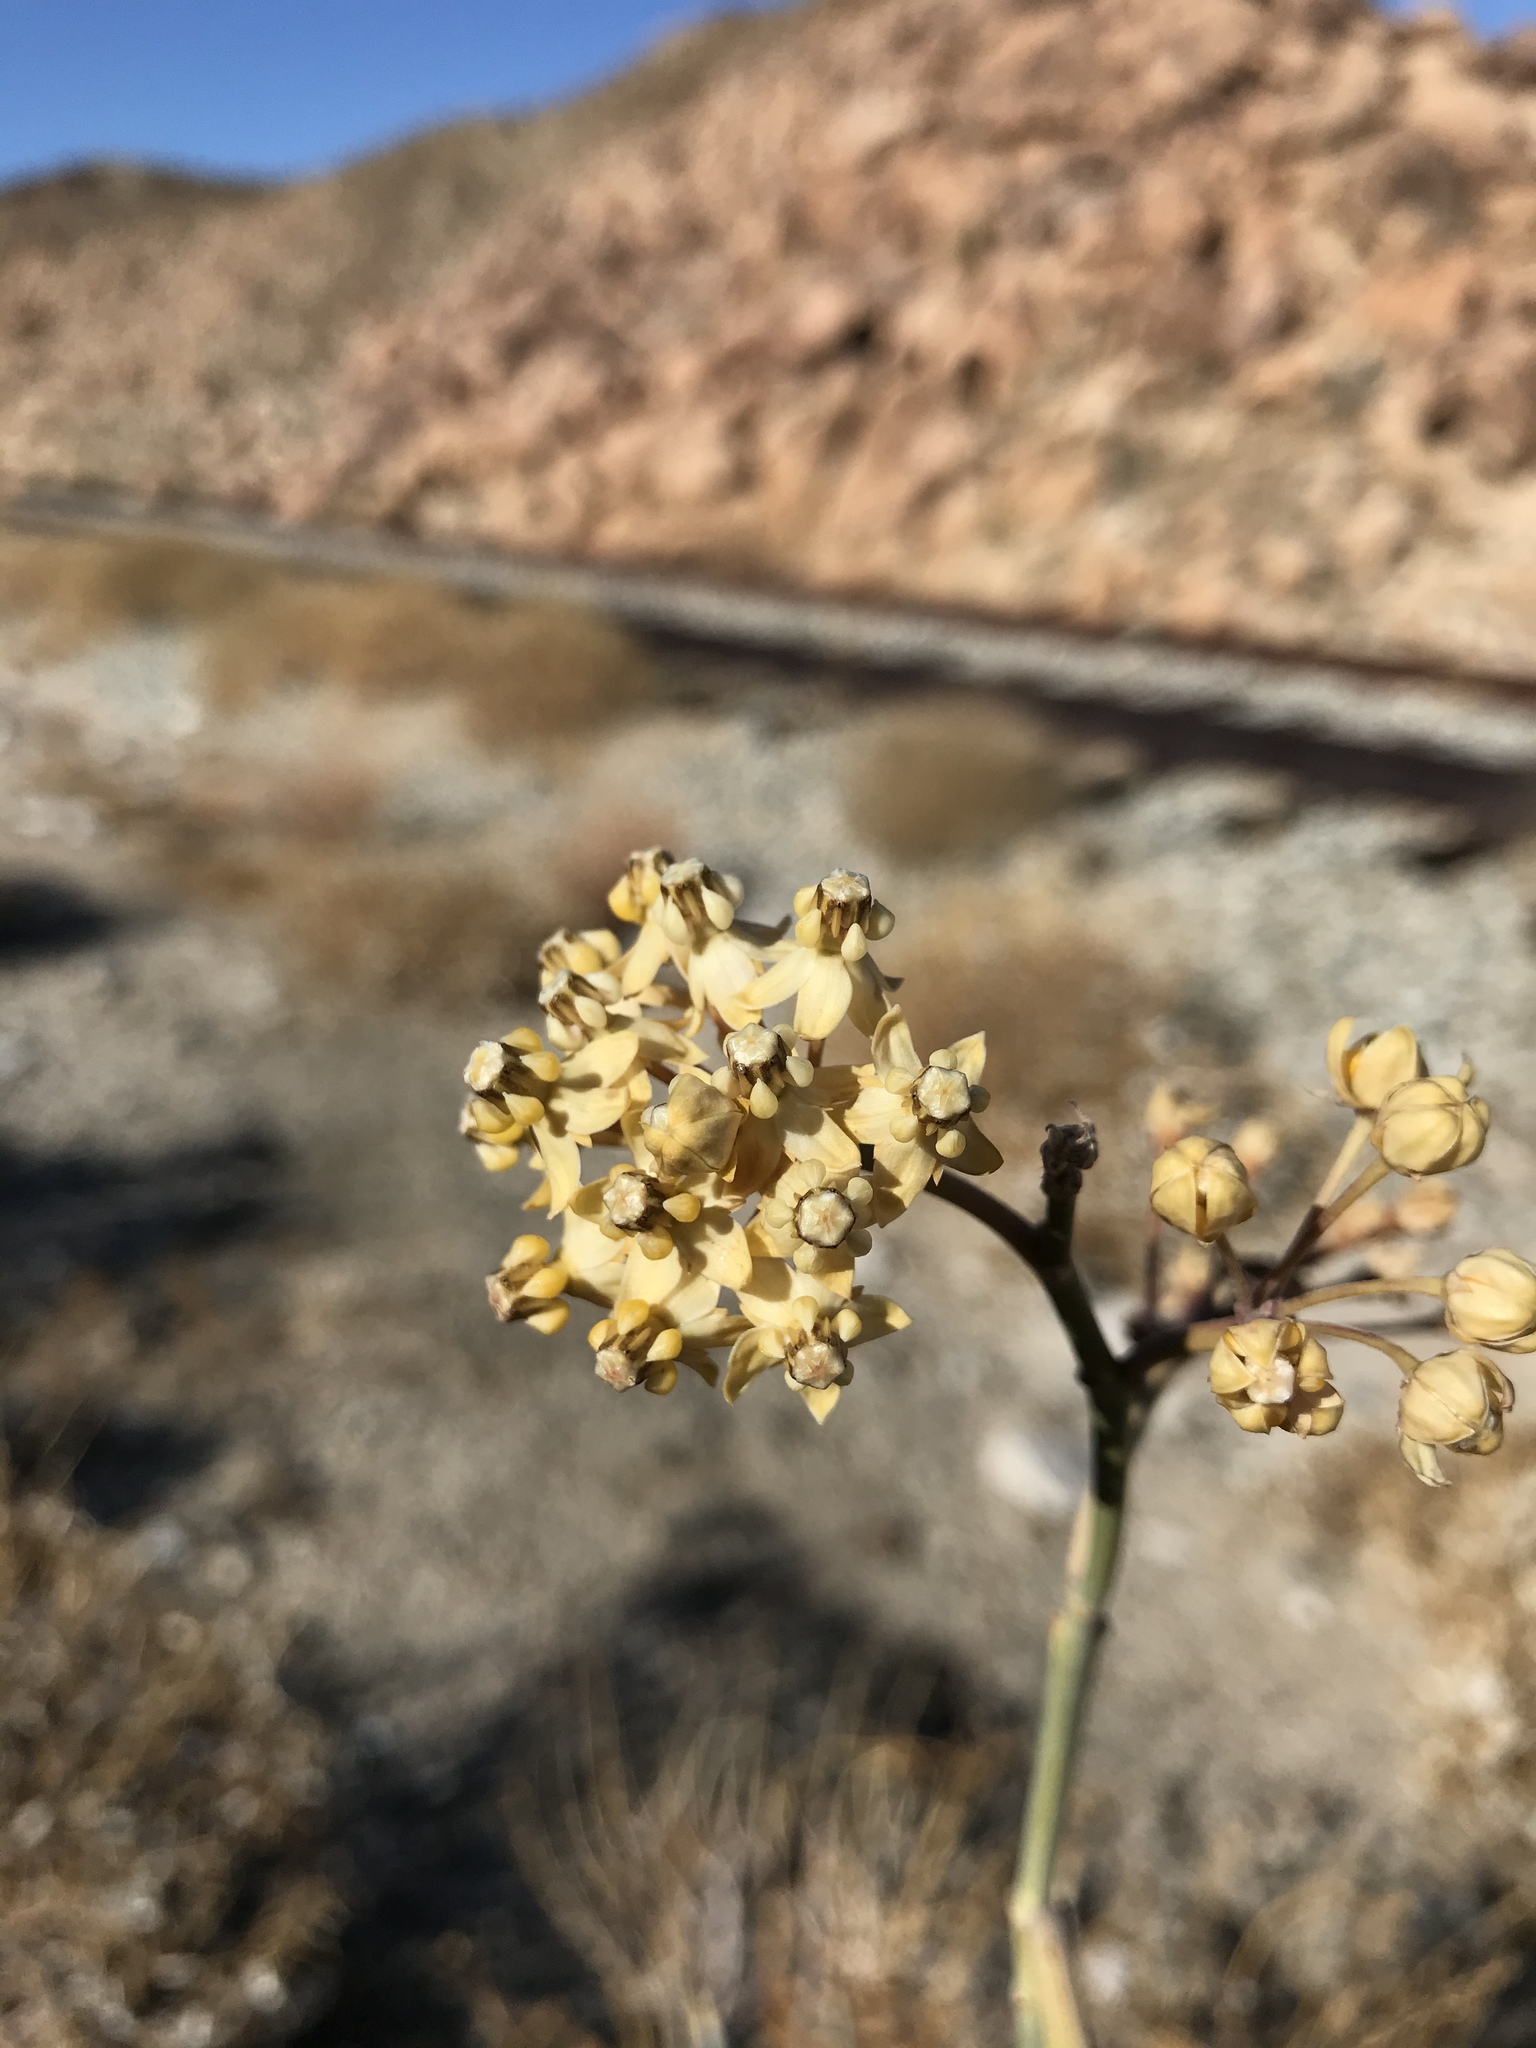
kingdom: Plantae
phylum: Tracheophyta
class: Magnoliopsida
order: Gentianales
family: Apocynaceae
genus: Asclepias
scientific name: Asclepias albicans
